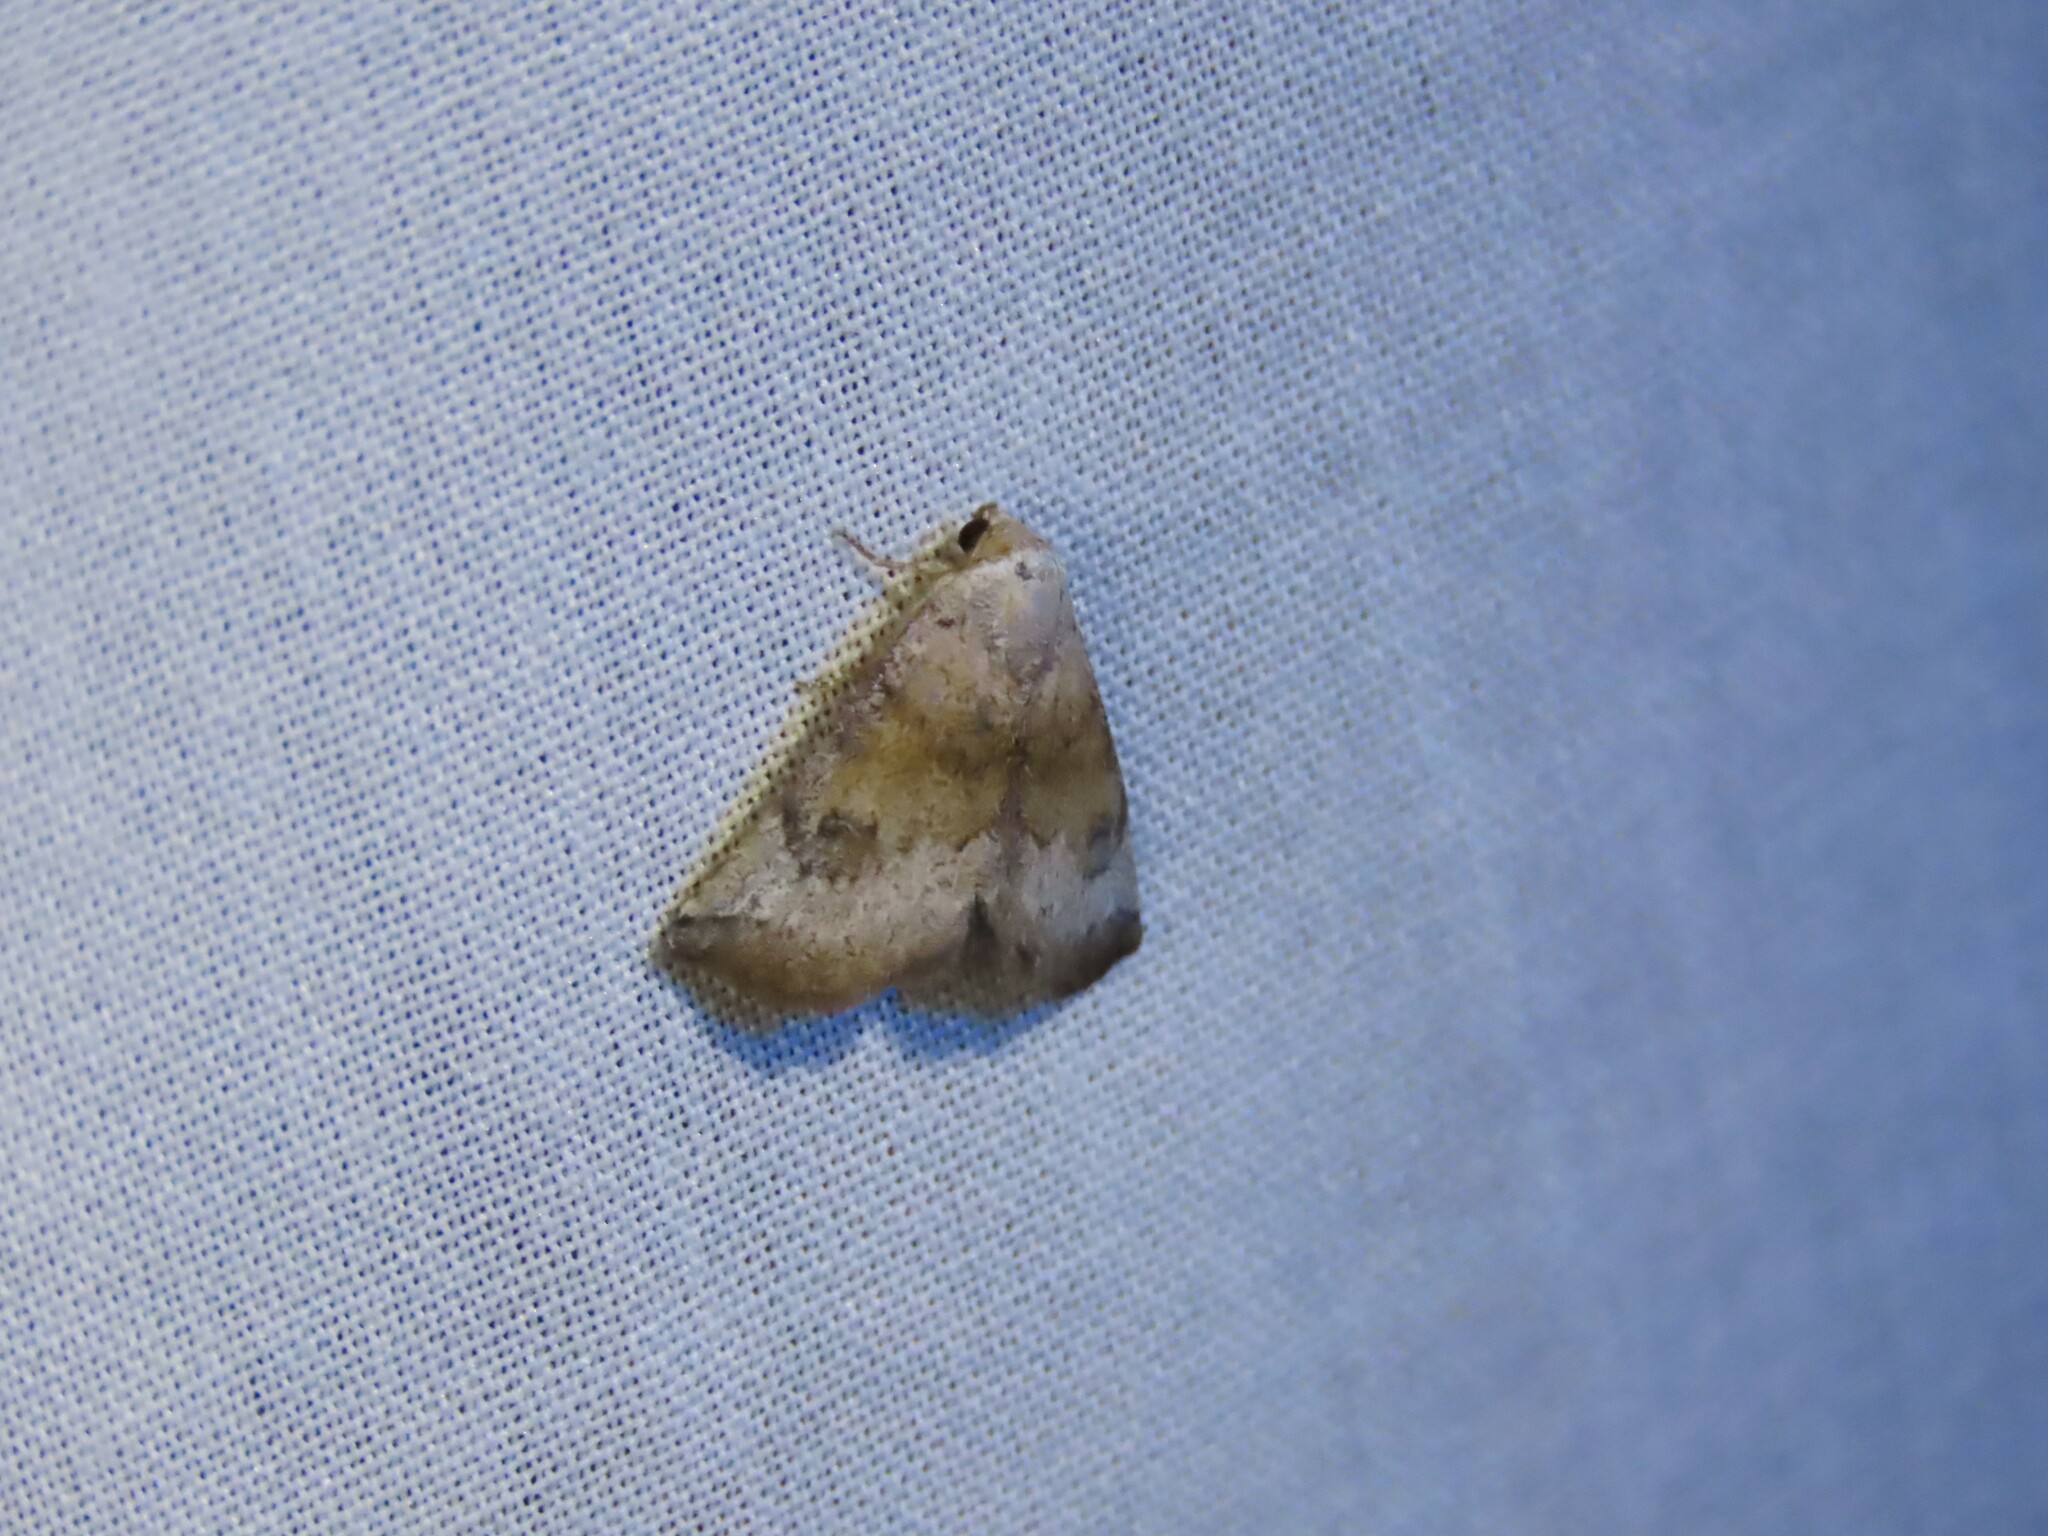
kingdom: Animalia
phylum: Arthropoda
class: Insecta
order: Lepidoptera
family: Noctuidae
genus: Mataeomera
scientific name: Mataeomera mesotaenia
